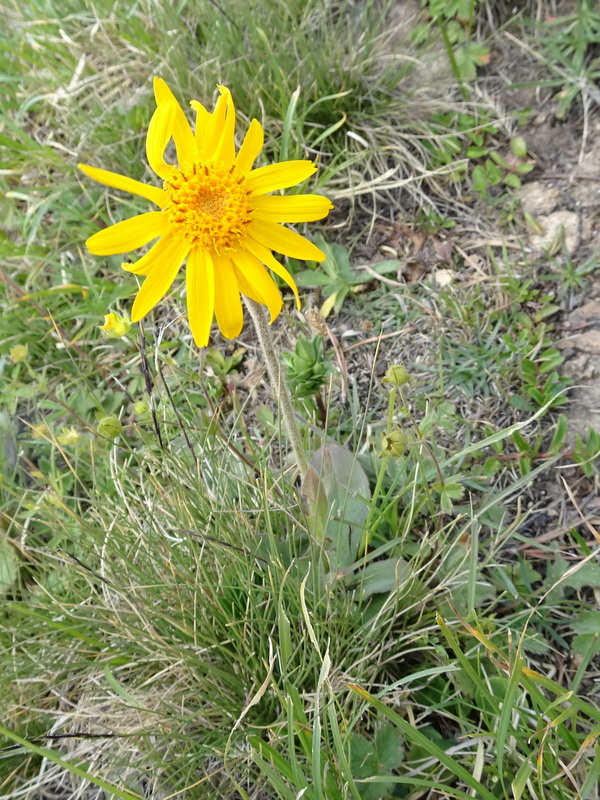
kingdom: Plantae
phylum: Tracheophyta
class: Magnoliopsida
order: Asterales
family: Asteraceae
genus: Arnica
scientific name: Arnica montana
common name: Leopard's bane
